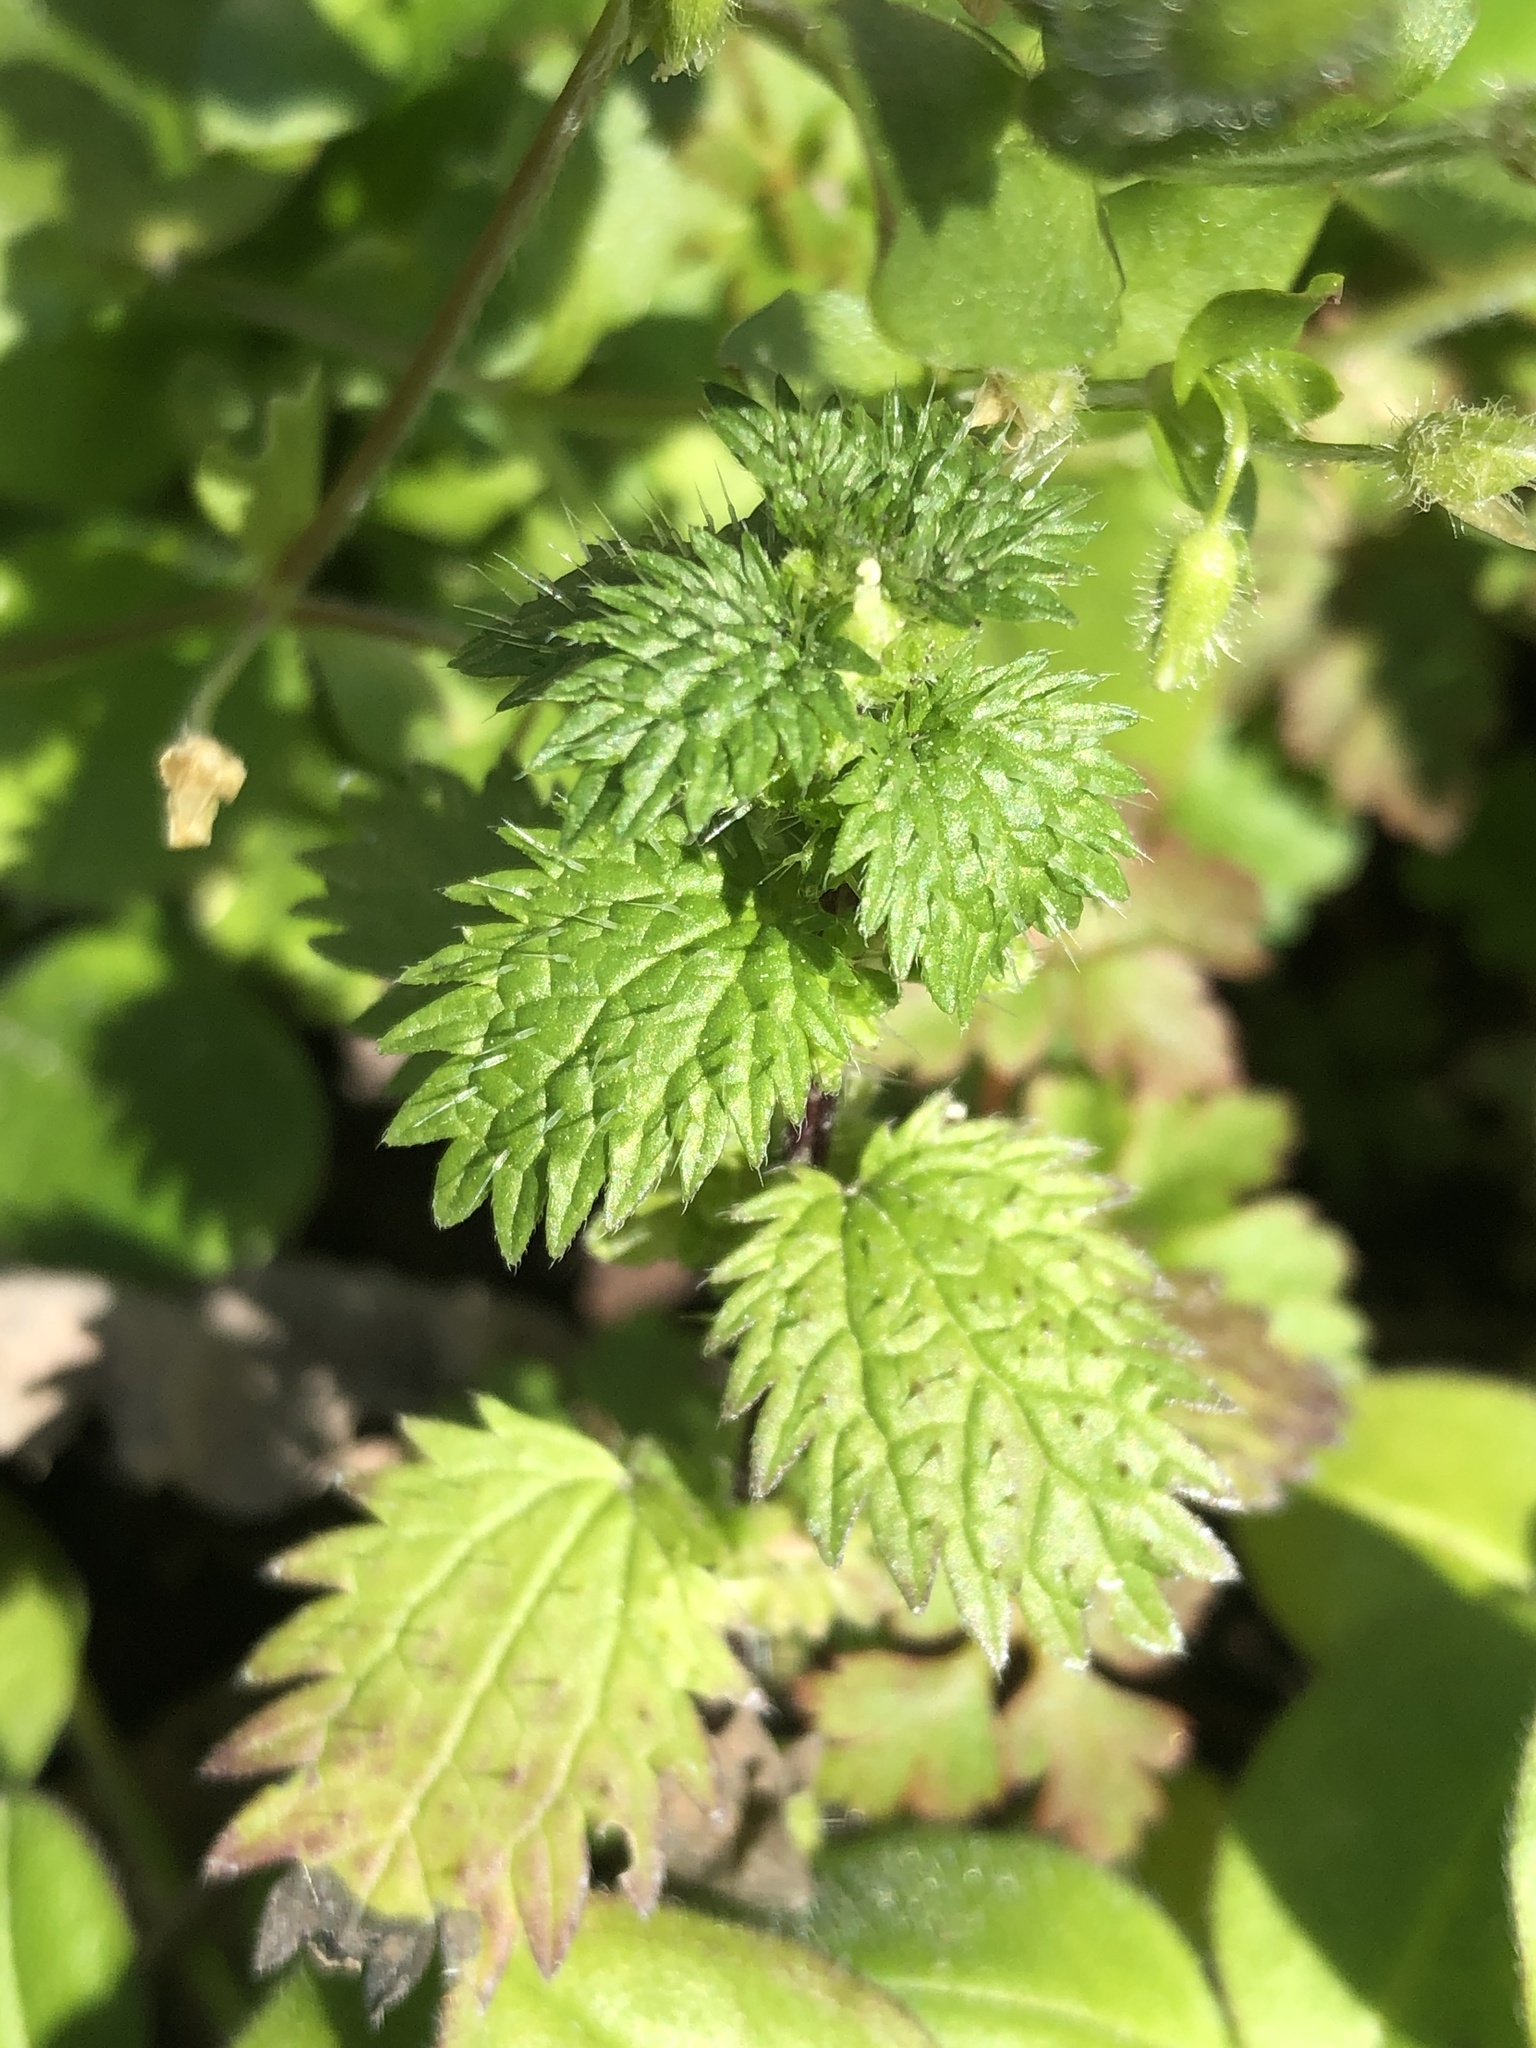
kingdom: Plantae
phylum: Tracheophyta
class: Magnoliopsida
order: Rosales
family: Urticaceae
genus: Urtica
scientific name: Urtica urens
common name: Dwarf nettle
